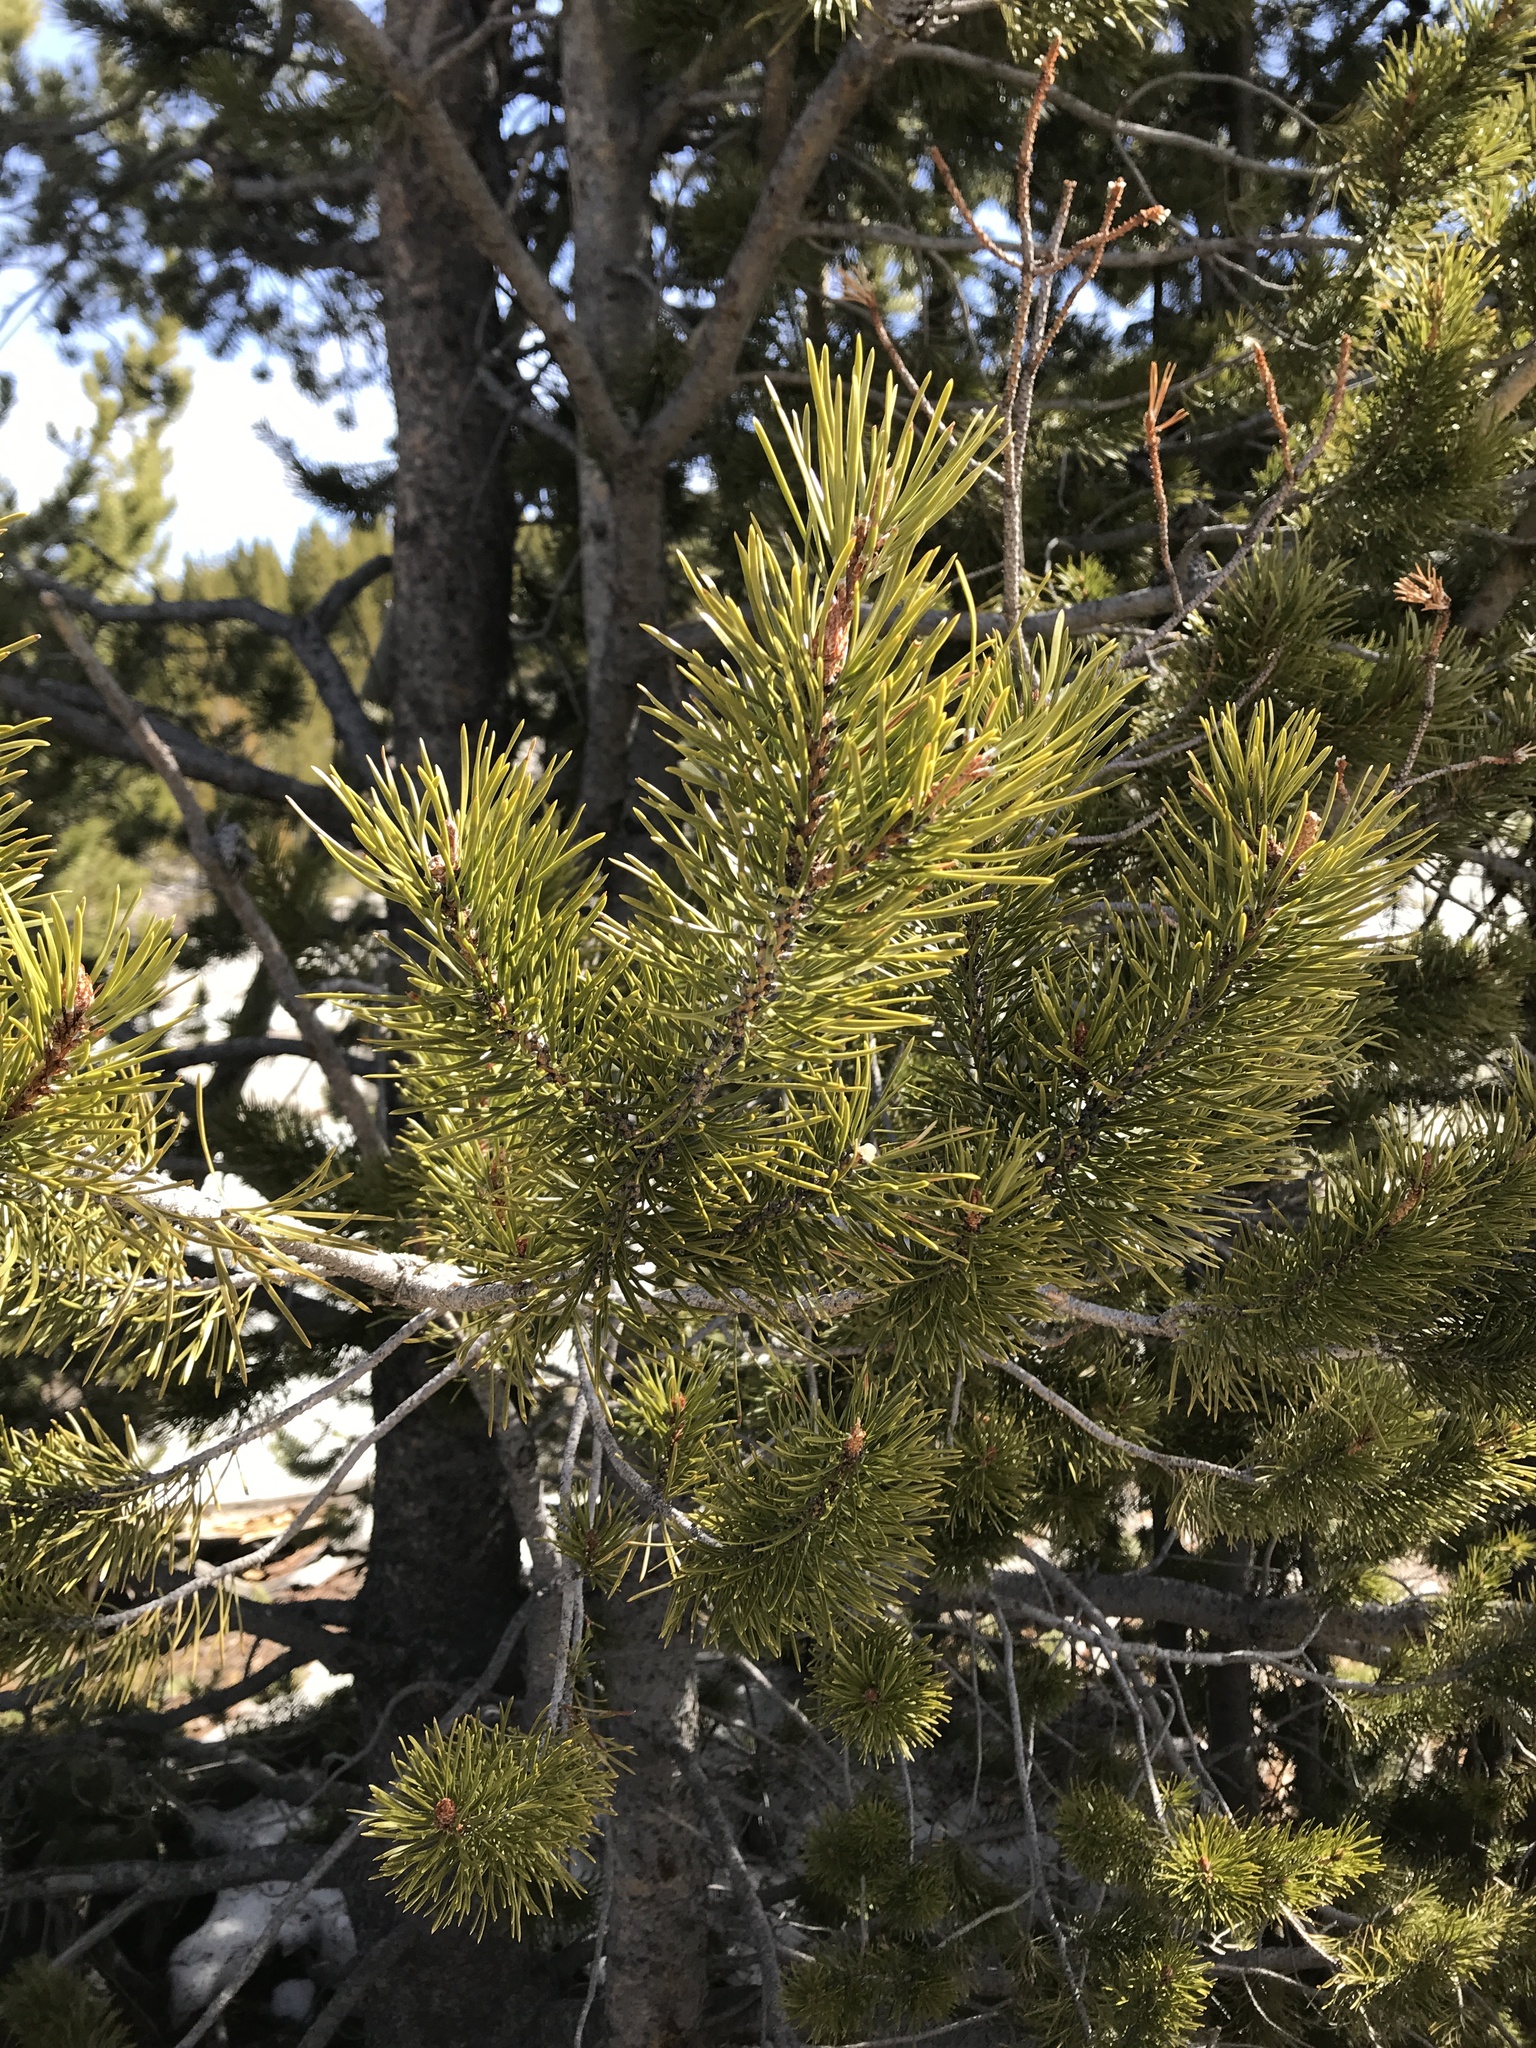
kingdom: Plantae
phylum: Tracheophyta
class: Pinopsida
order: Pinales
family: Pinaceae
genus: Pinus
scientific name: Pinus contorta
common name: Lodgepole pine
